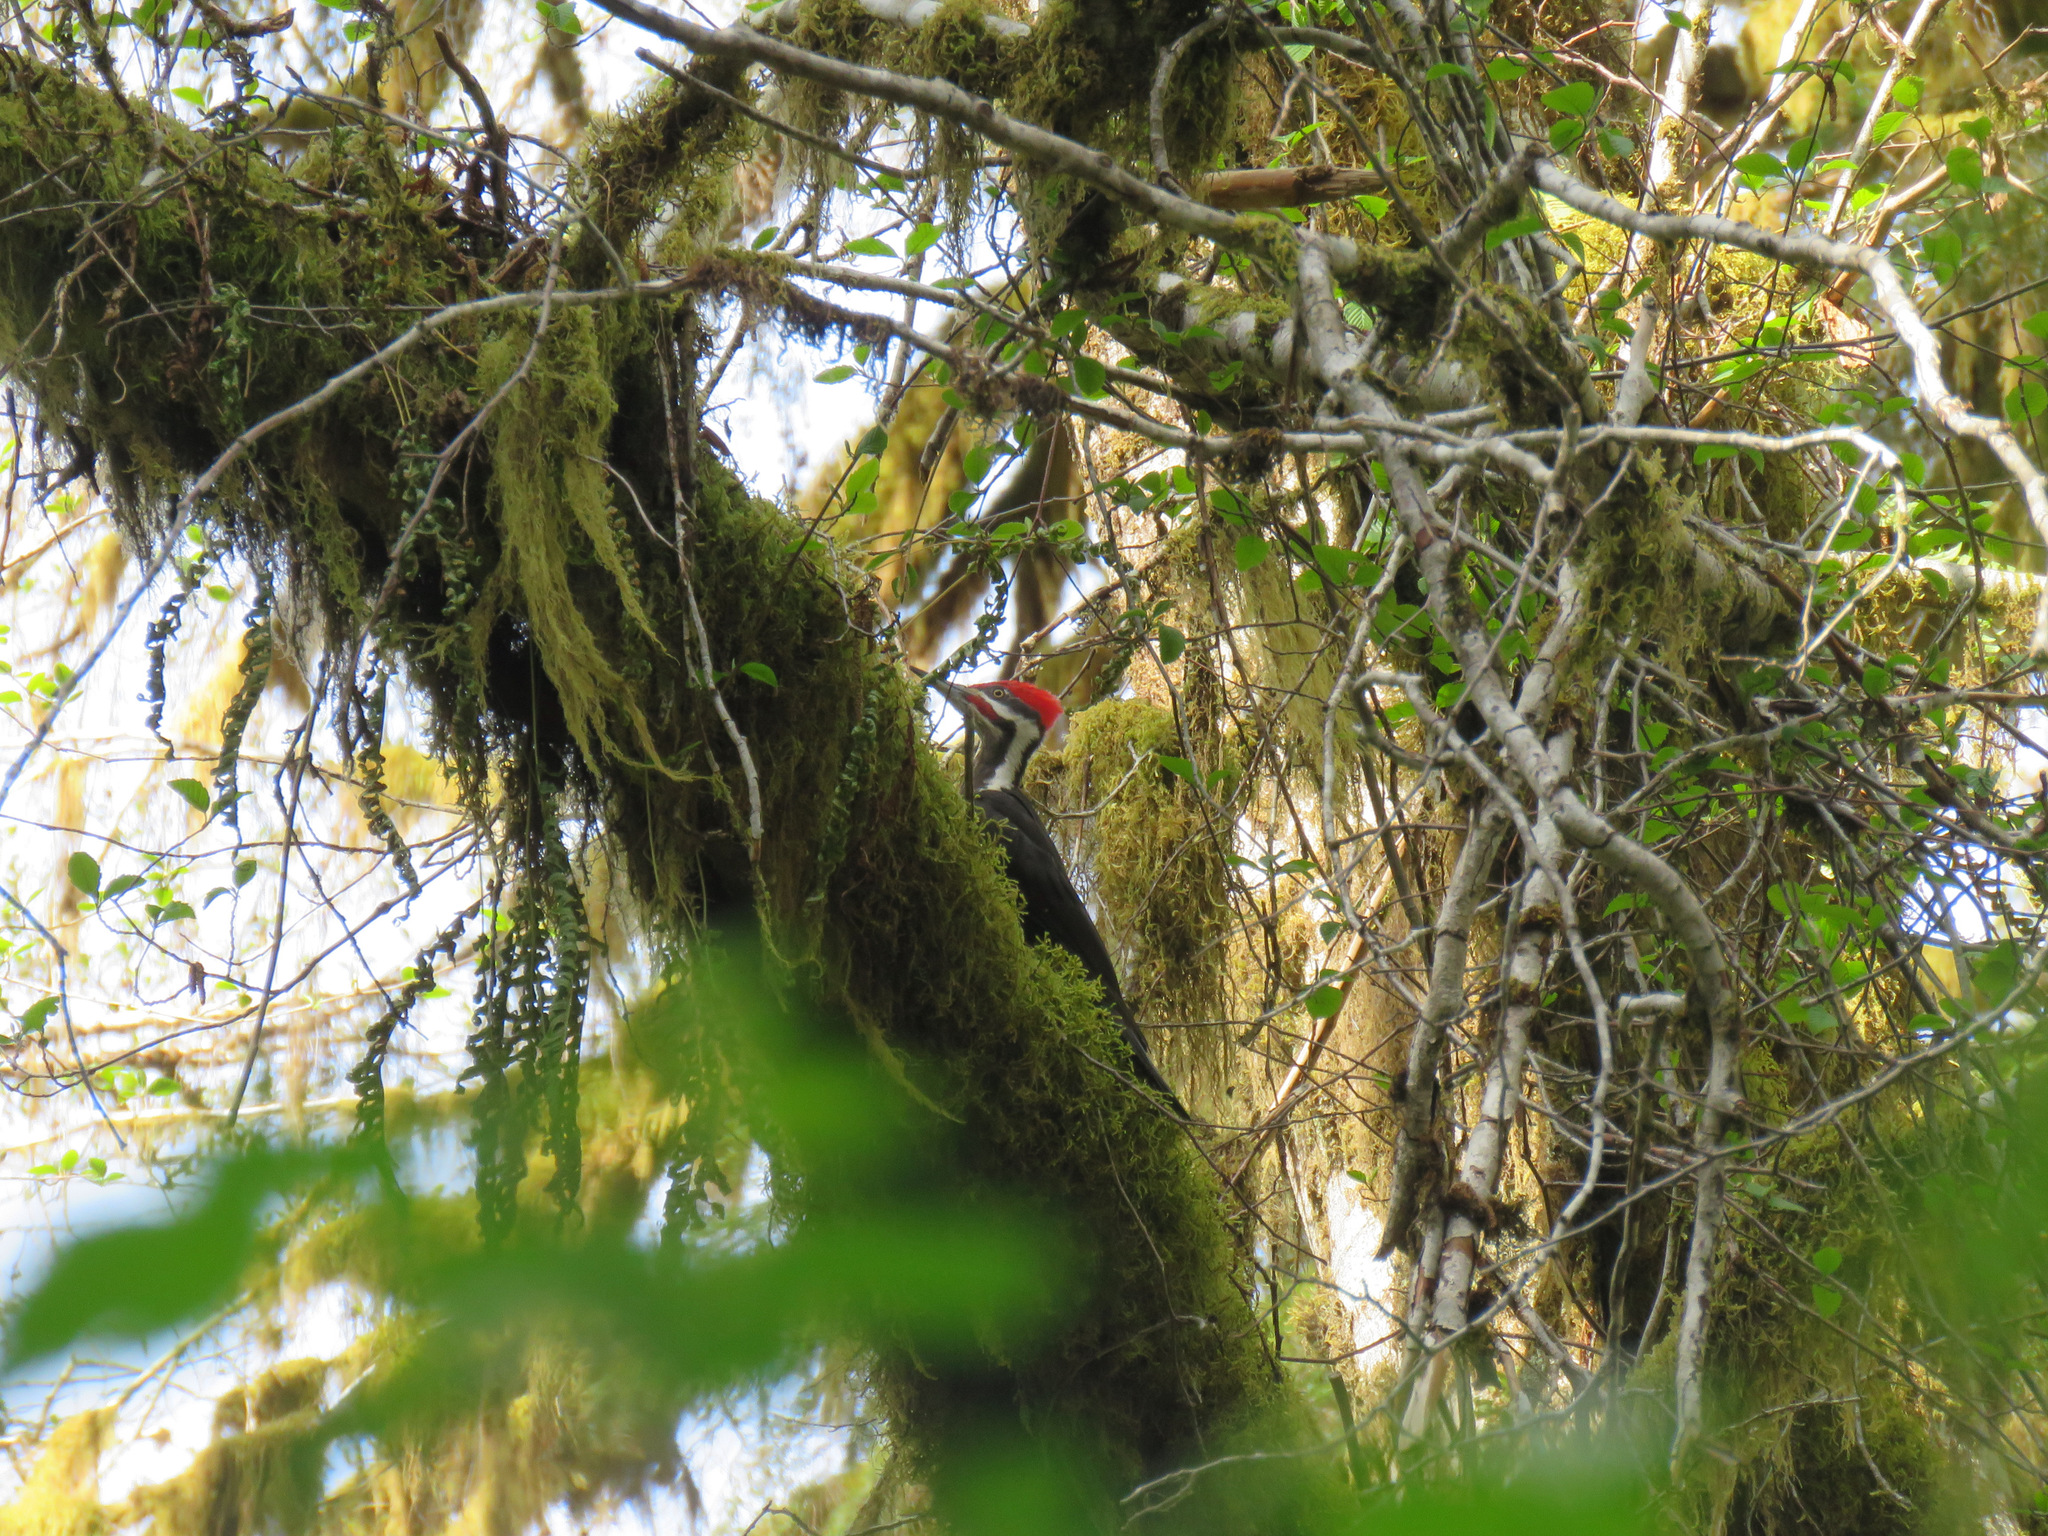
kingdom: Animalia
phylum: Chordata
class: Aves
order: Piciformes
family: Picidae
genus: Dryocopus
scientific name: Dryocopus pileatus
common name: Pileated woodpecker
